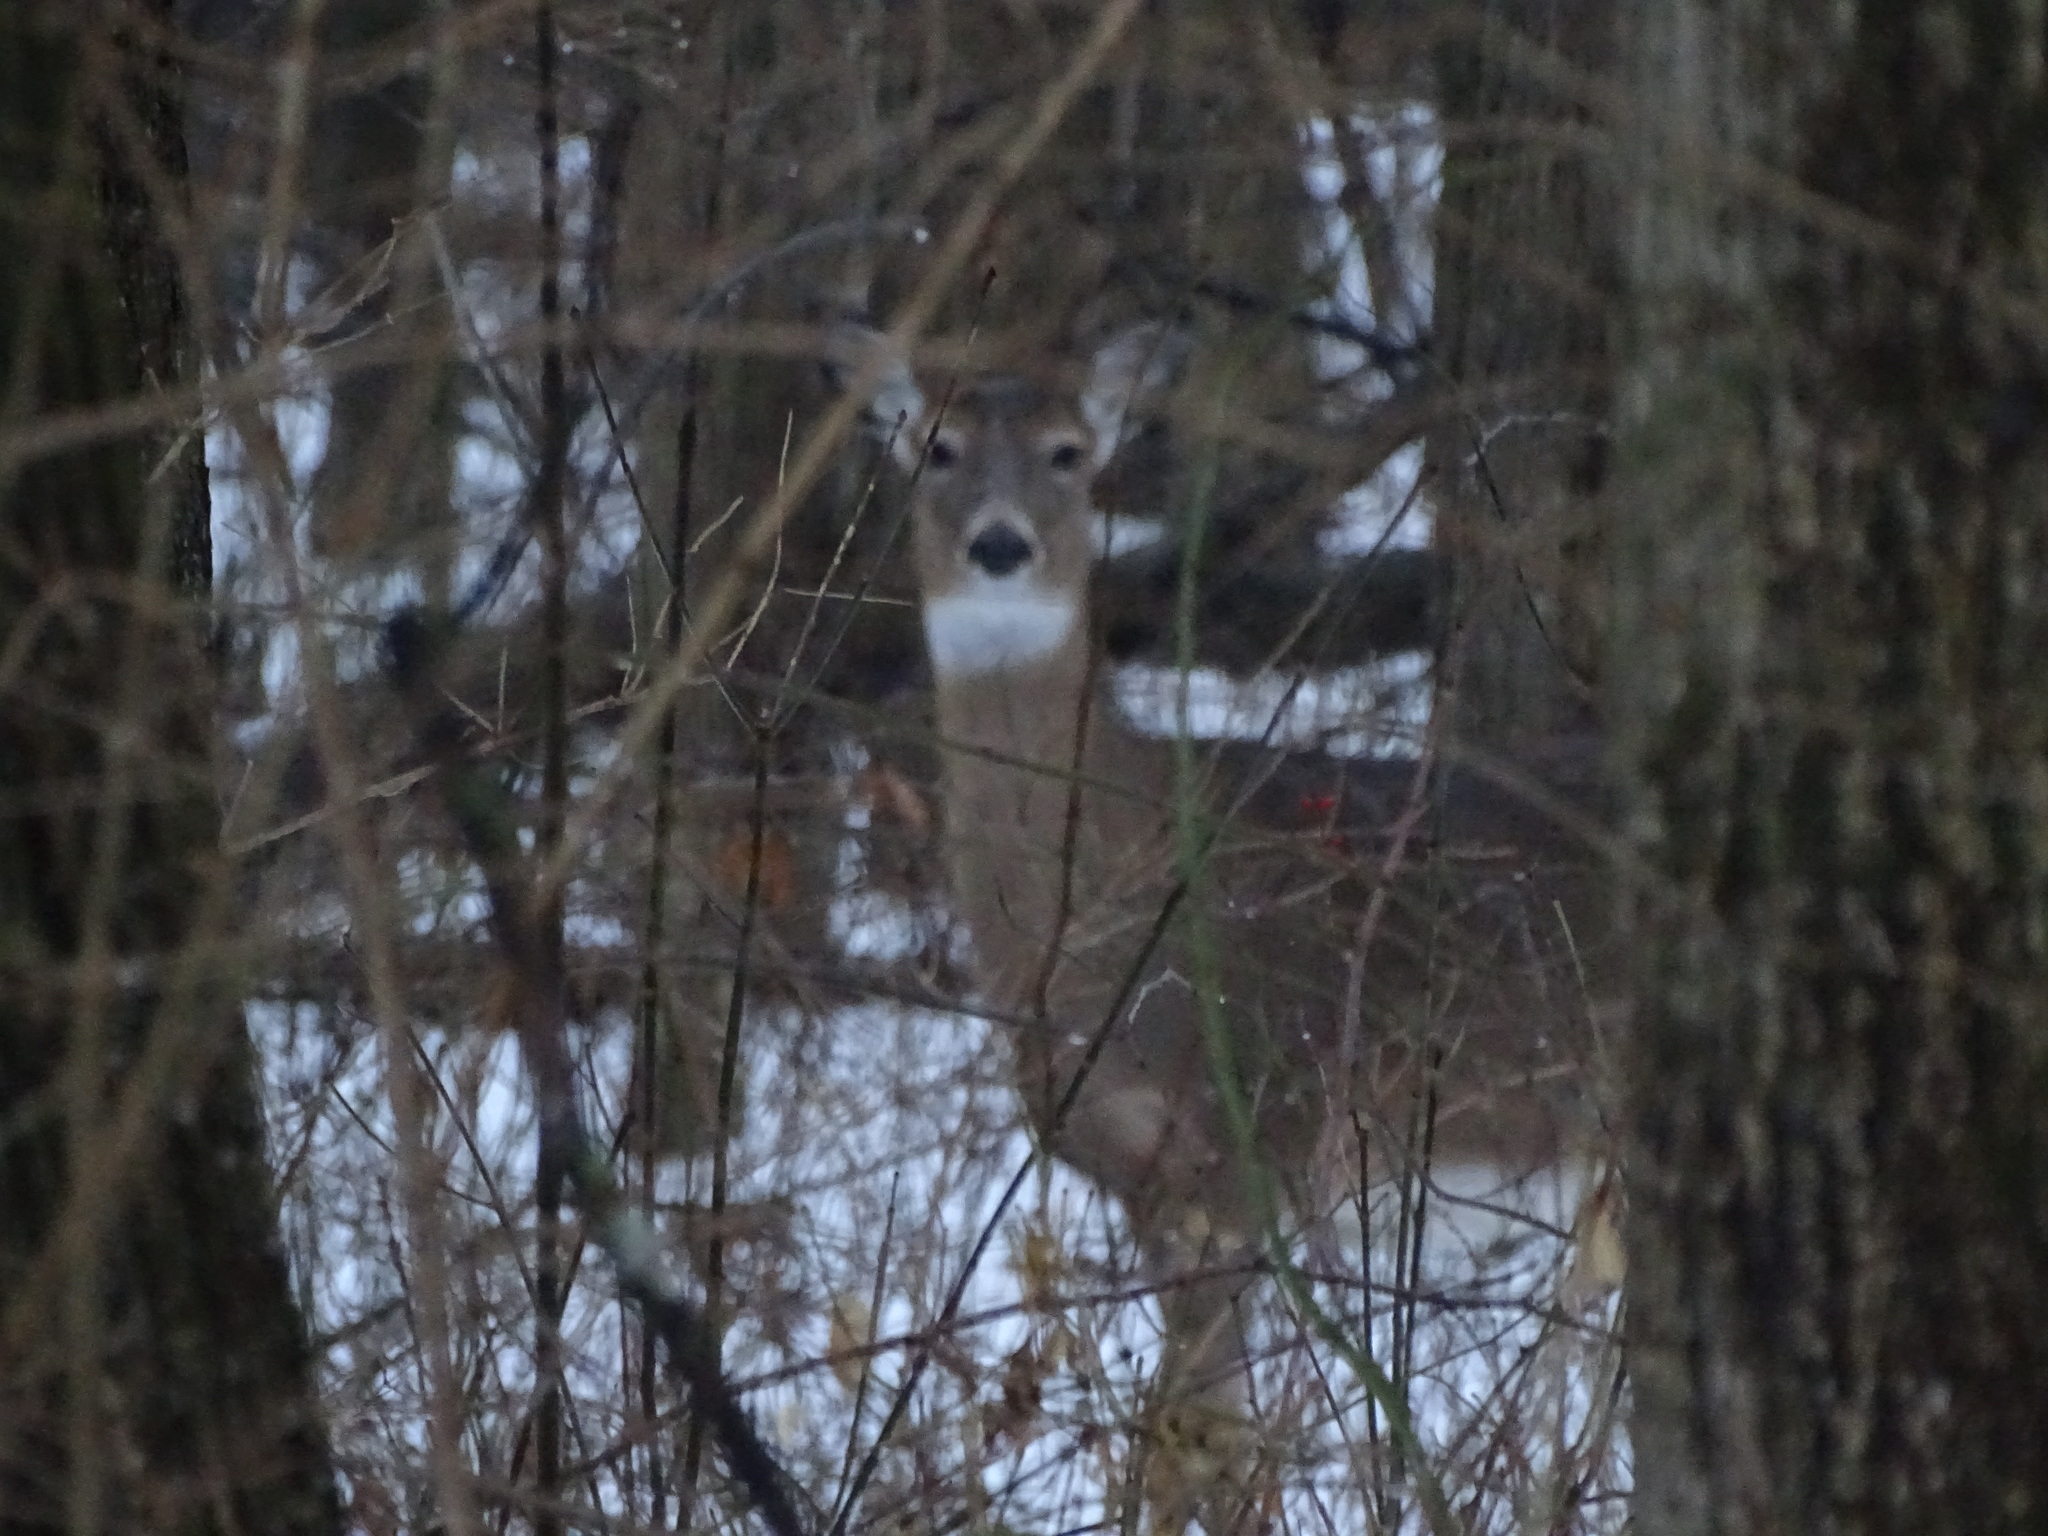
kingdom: Animalia
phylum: Chordata
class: Mammalia
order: Artiodactyla
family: Cervidae
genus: Odocoileus
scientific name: Odocoileus virginianus
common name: White-tailed deer
